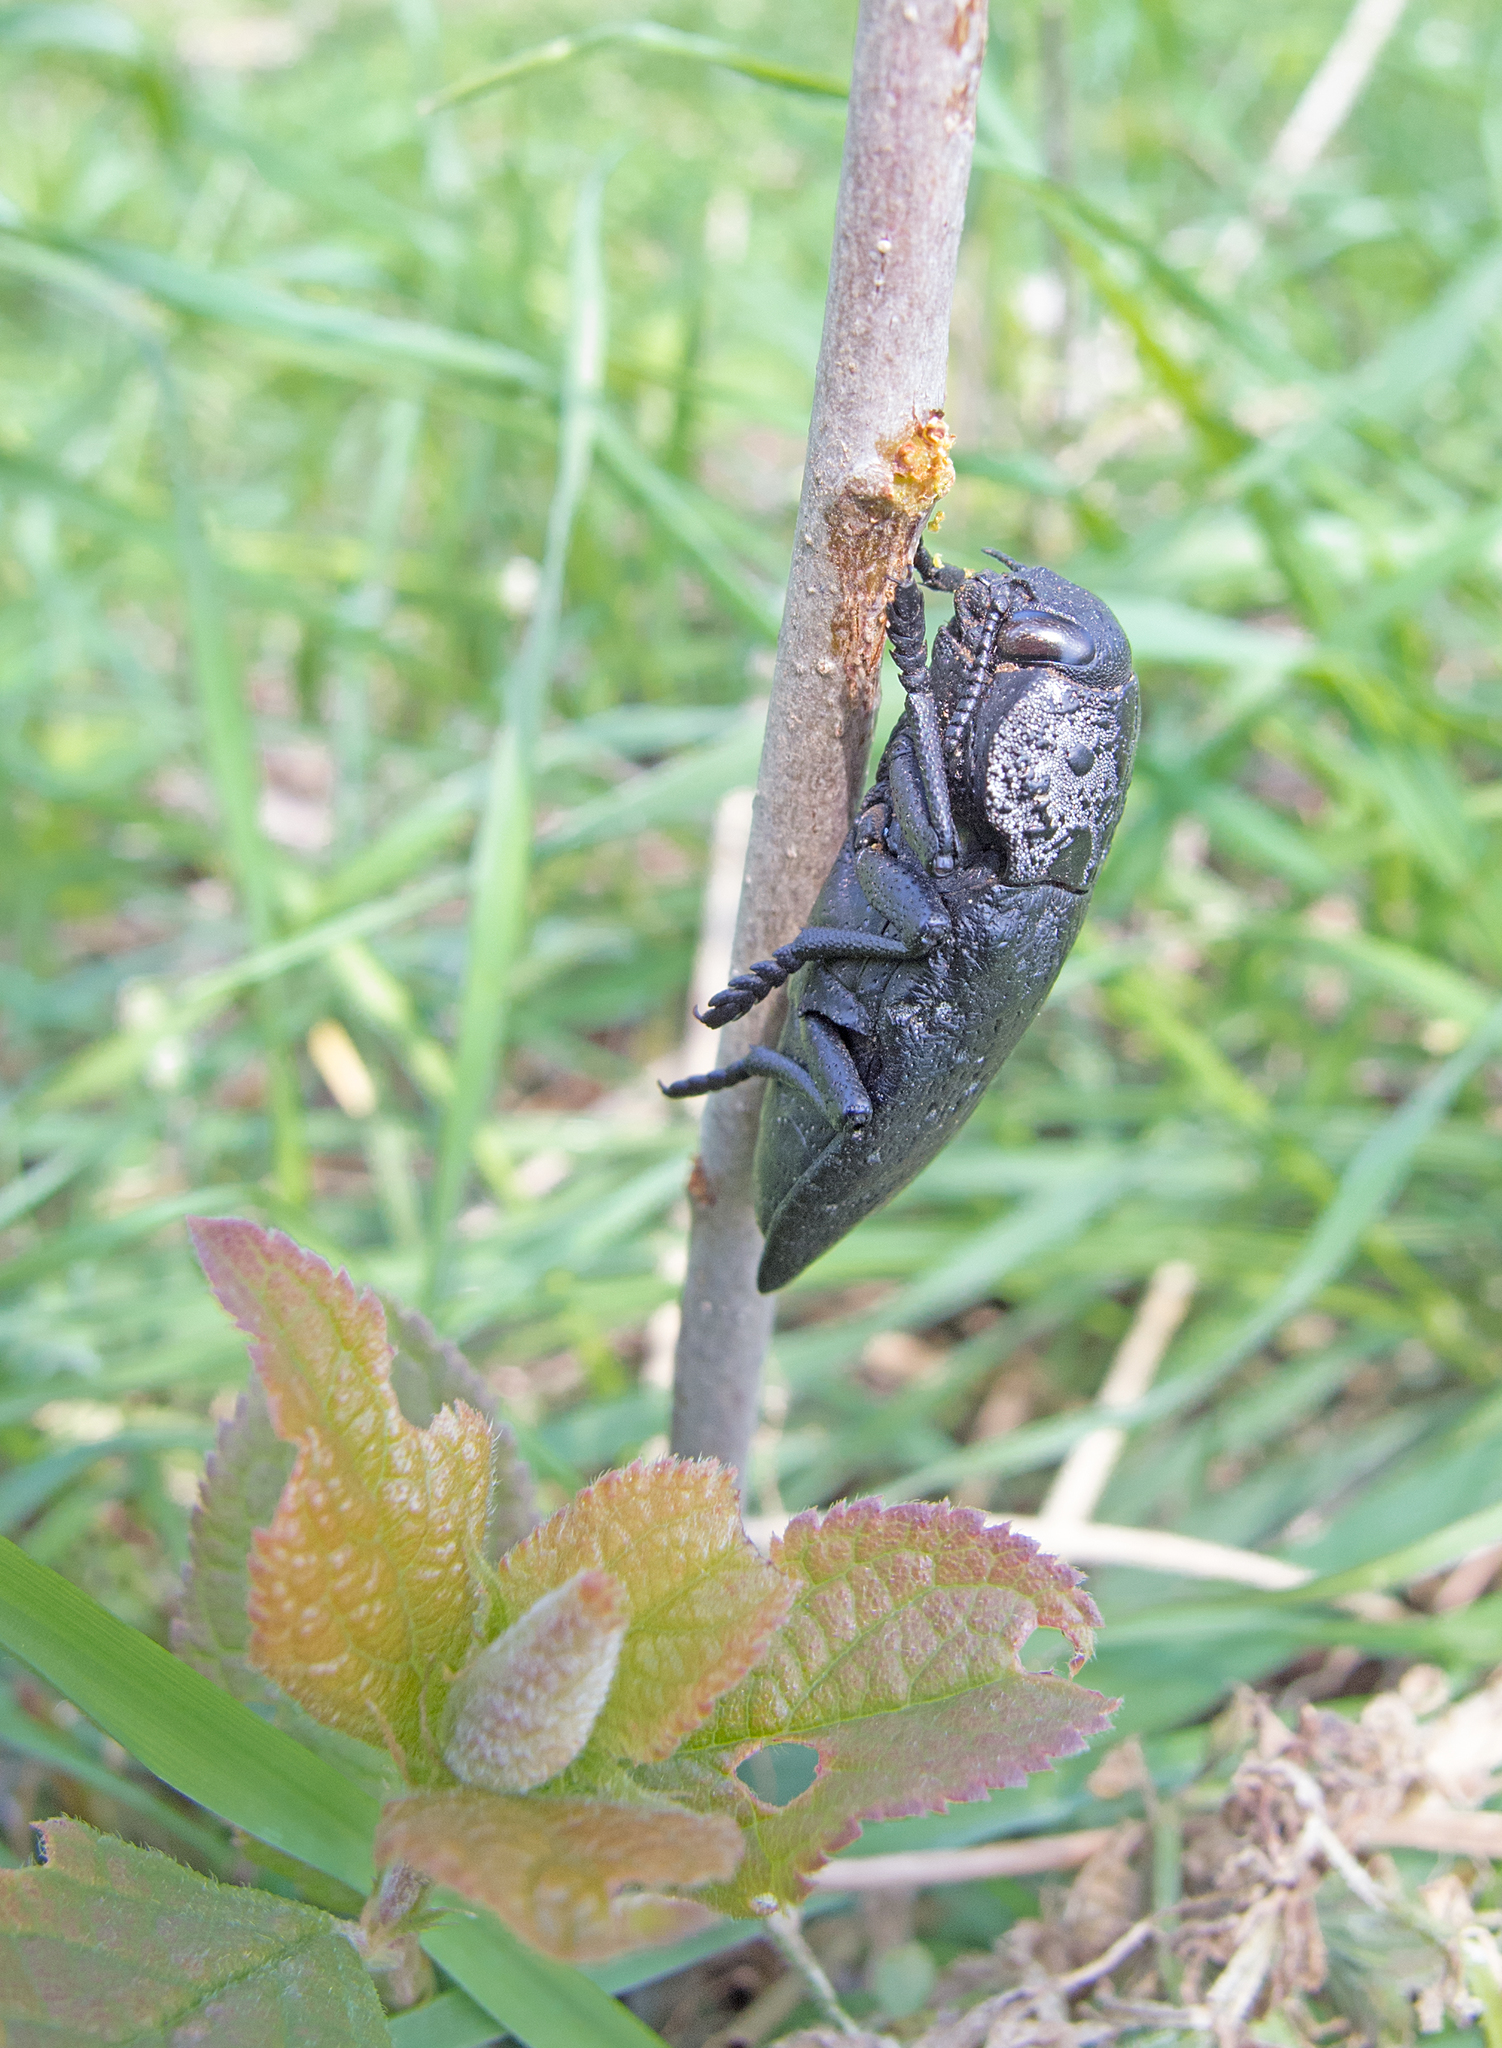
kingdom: Animalia
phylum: Arthropoda
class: Insecta
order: Coleoptera
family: Buprestidae
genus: Capnodis
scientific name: Capnodis tenebrionis
